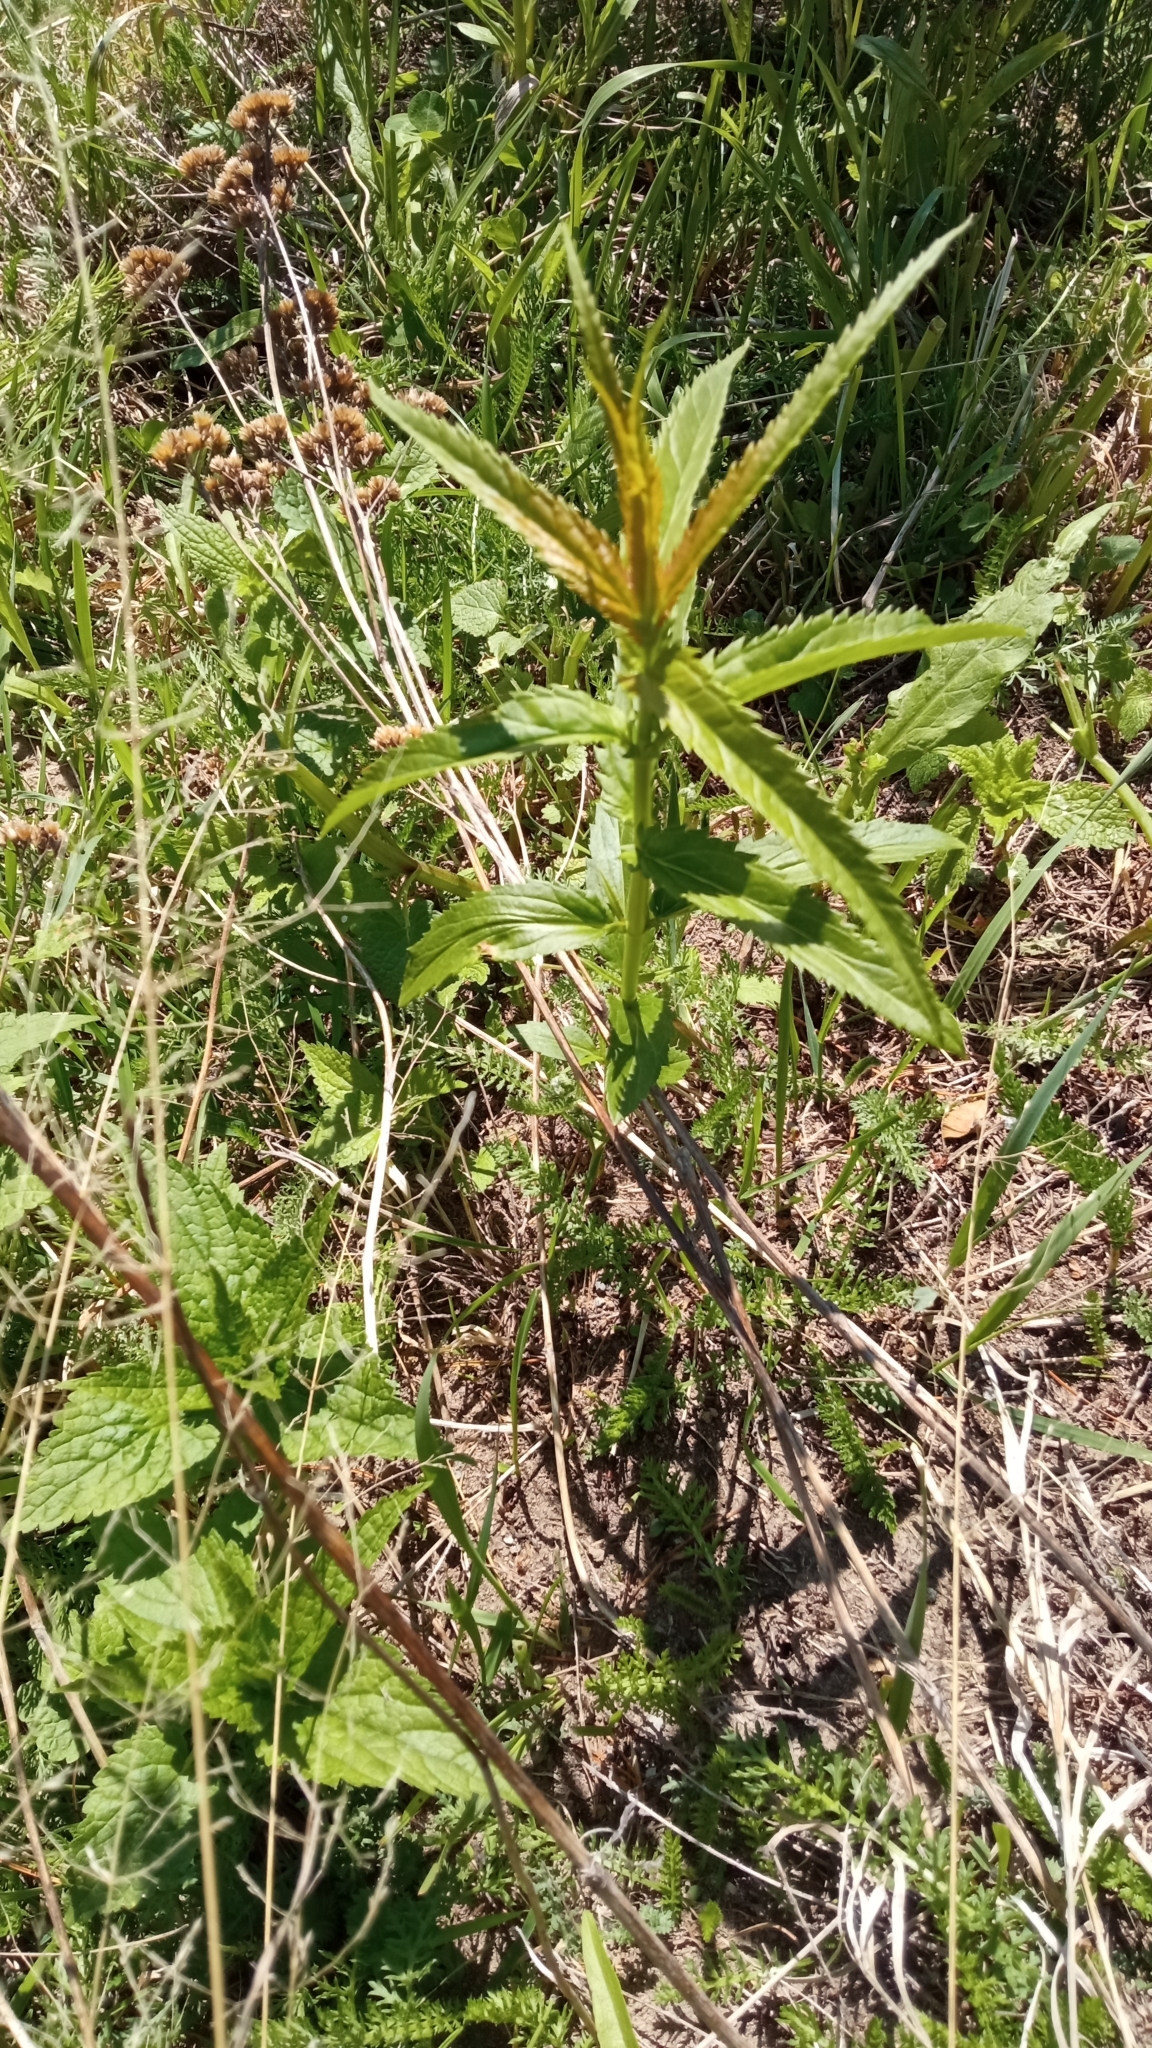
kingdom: Plantae
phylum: Tracheophyta
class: Magnoliopsida
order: Lamiales
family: Plantaginaceae
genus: Veronica
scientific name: Veronica longifolia
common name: Garden speedwell
